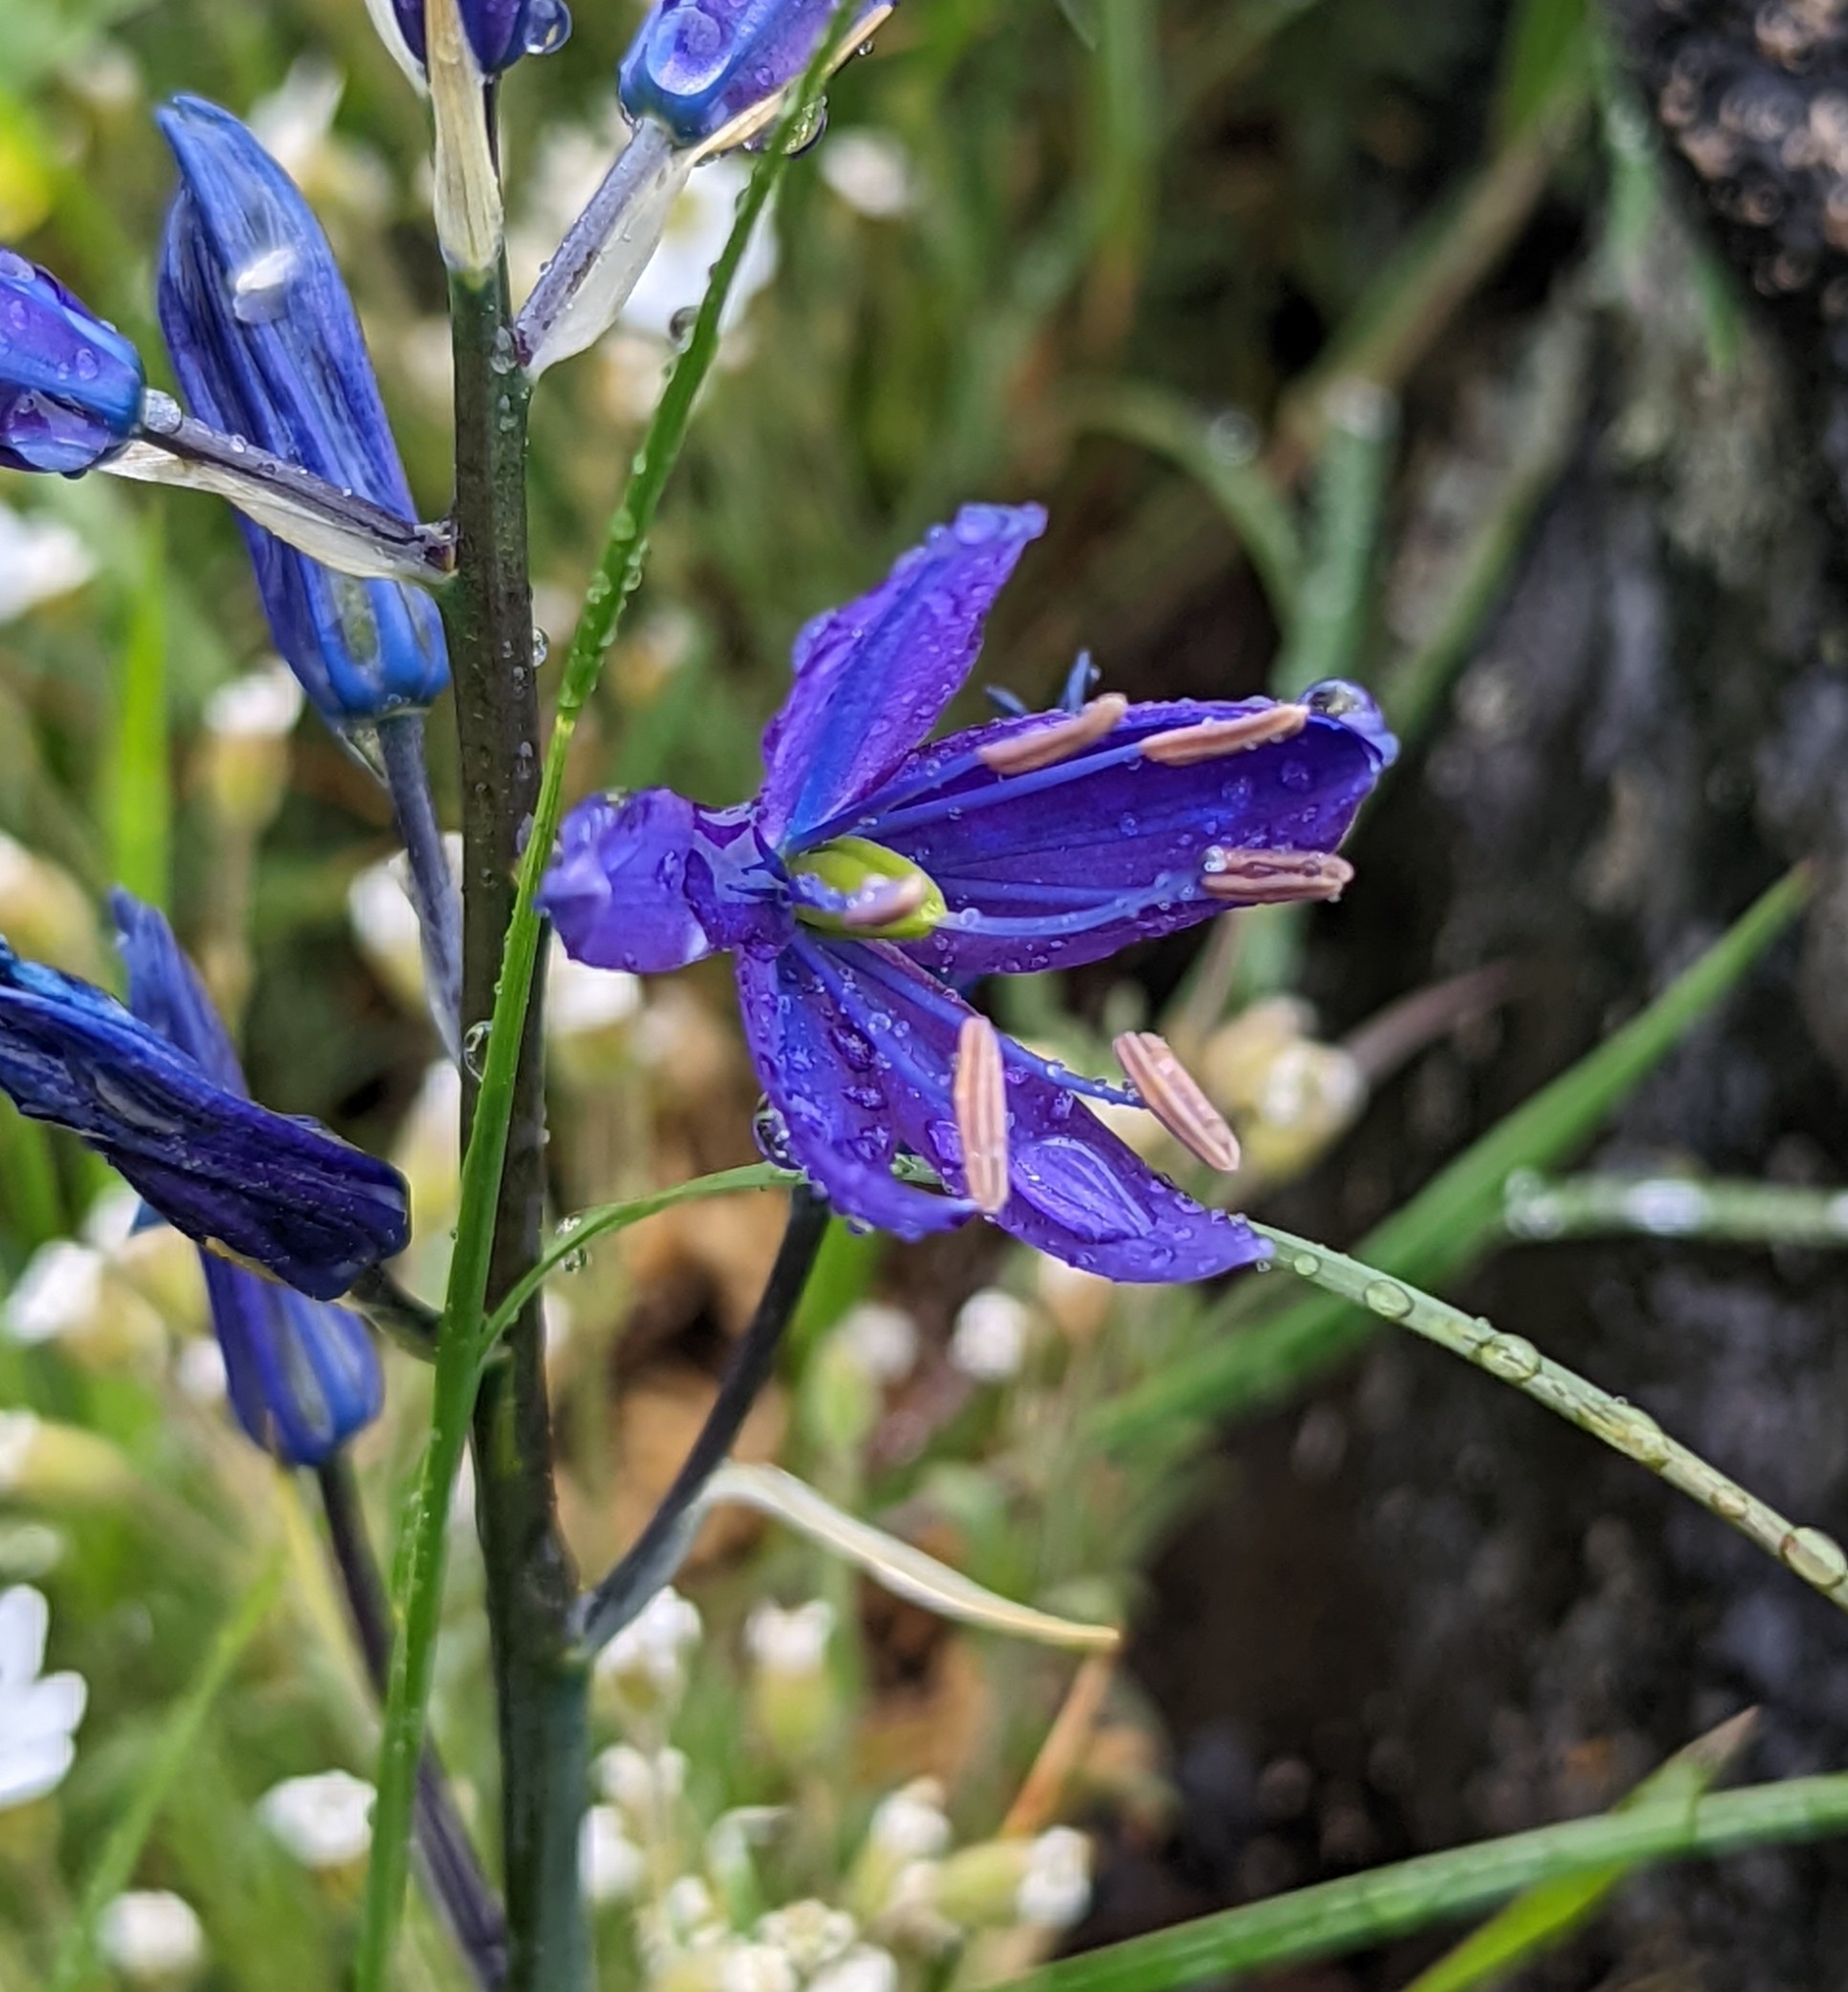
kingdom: Plantae
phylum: Tracheophyta
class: Liliopsida
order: Asparagales
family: Asparagaceae
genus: Camassia
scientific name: Camassia leichtlinii
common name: Leichtlin's camas
